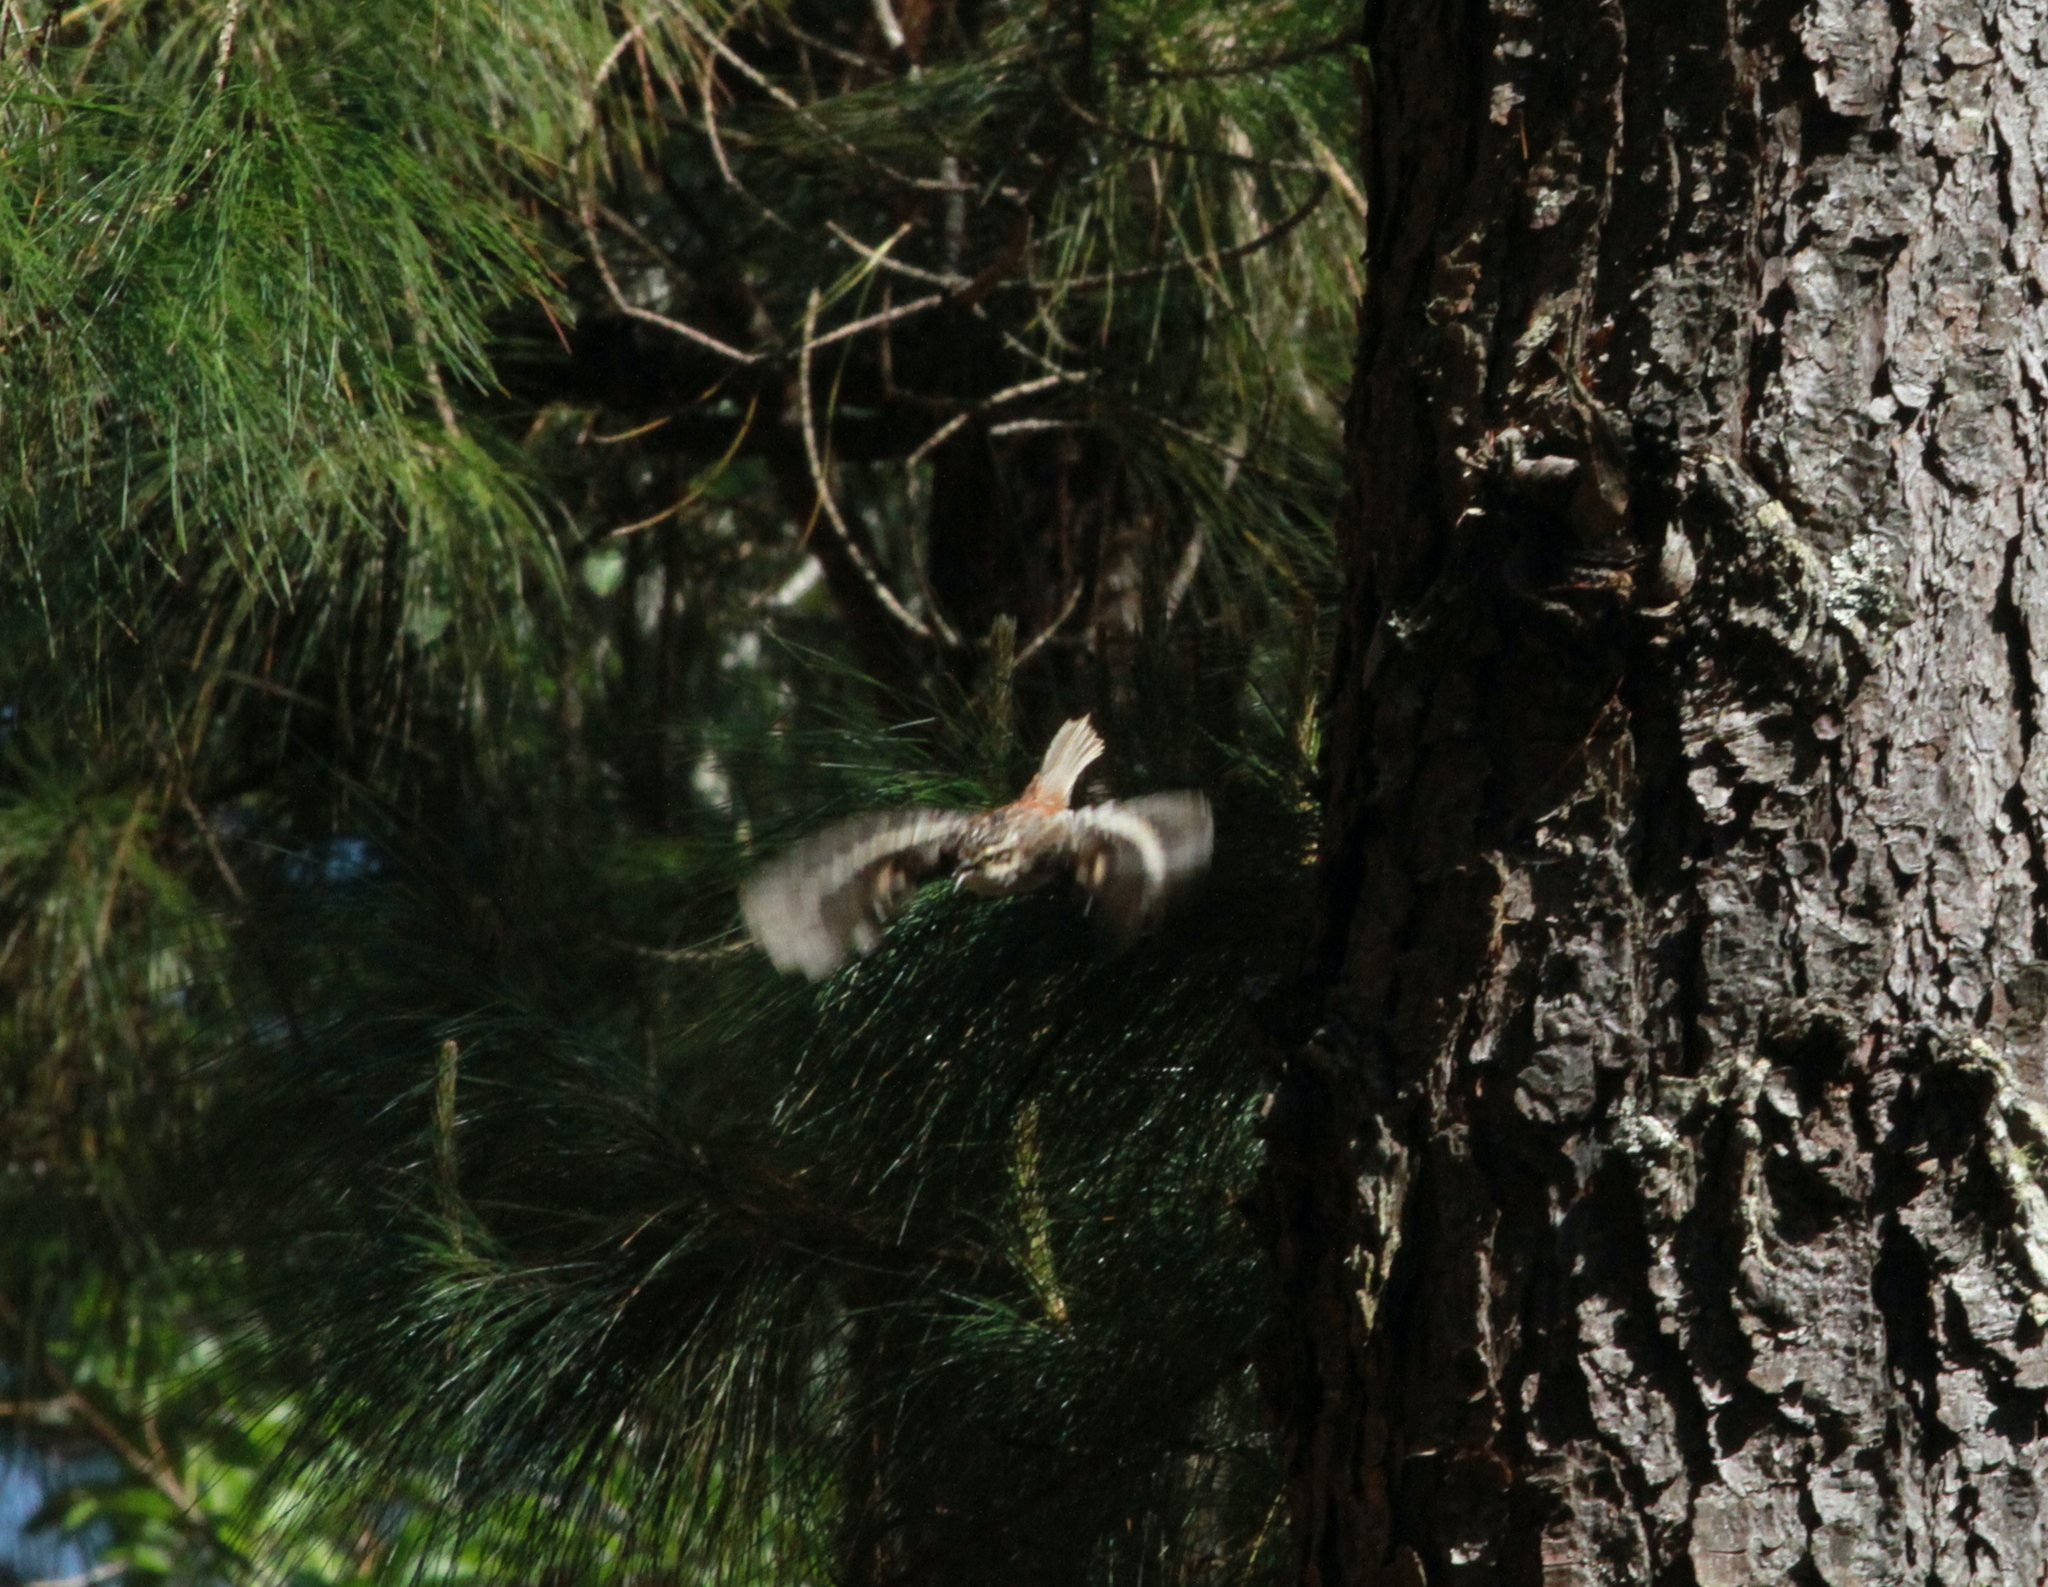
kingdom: Animalia
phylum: Chordata
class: Aves
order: Passeriformes
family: Certhiidae
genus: Certhia
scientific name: Certhia americana
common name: Brown creeper
